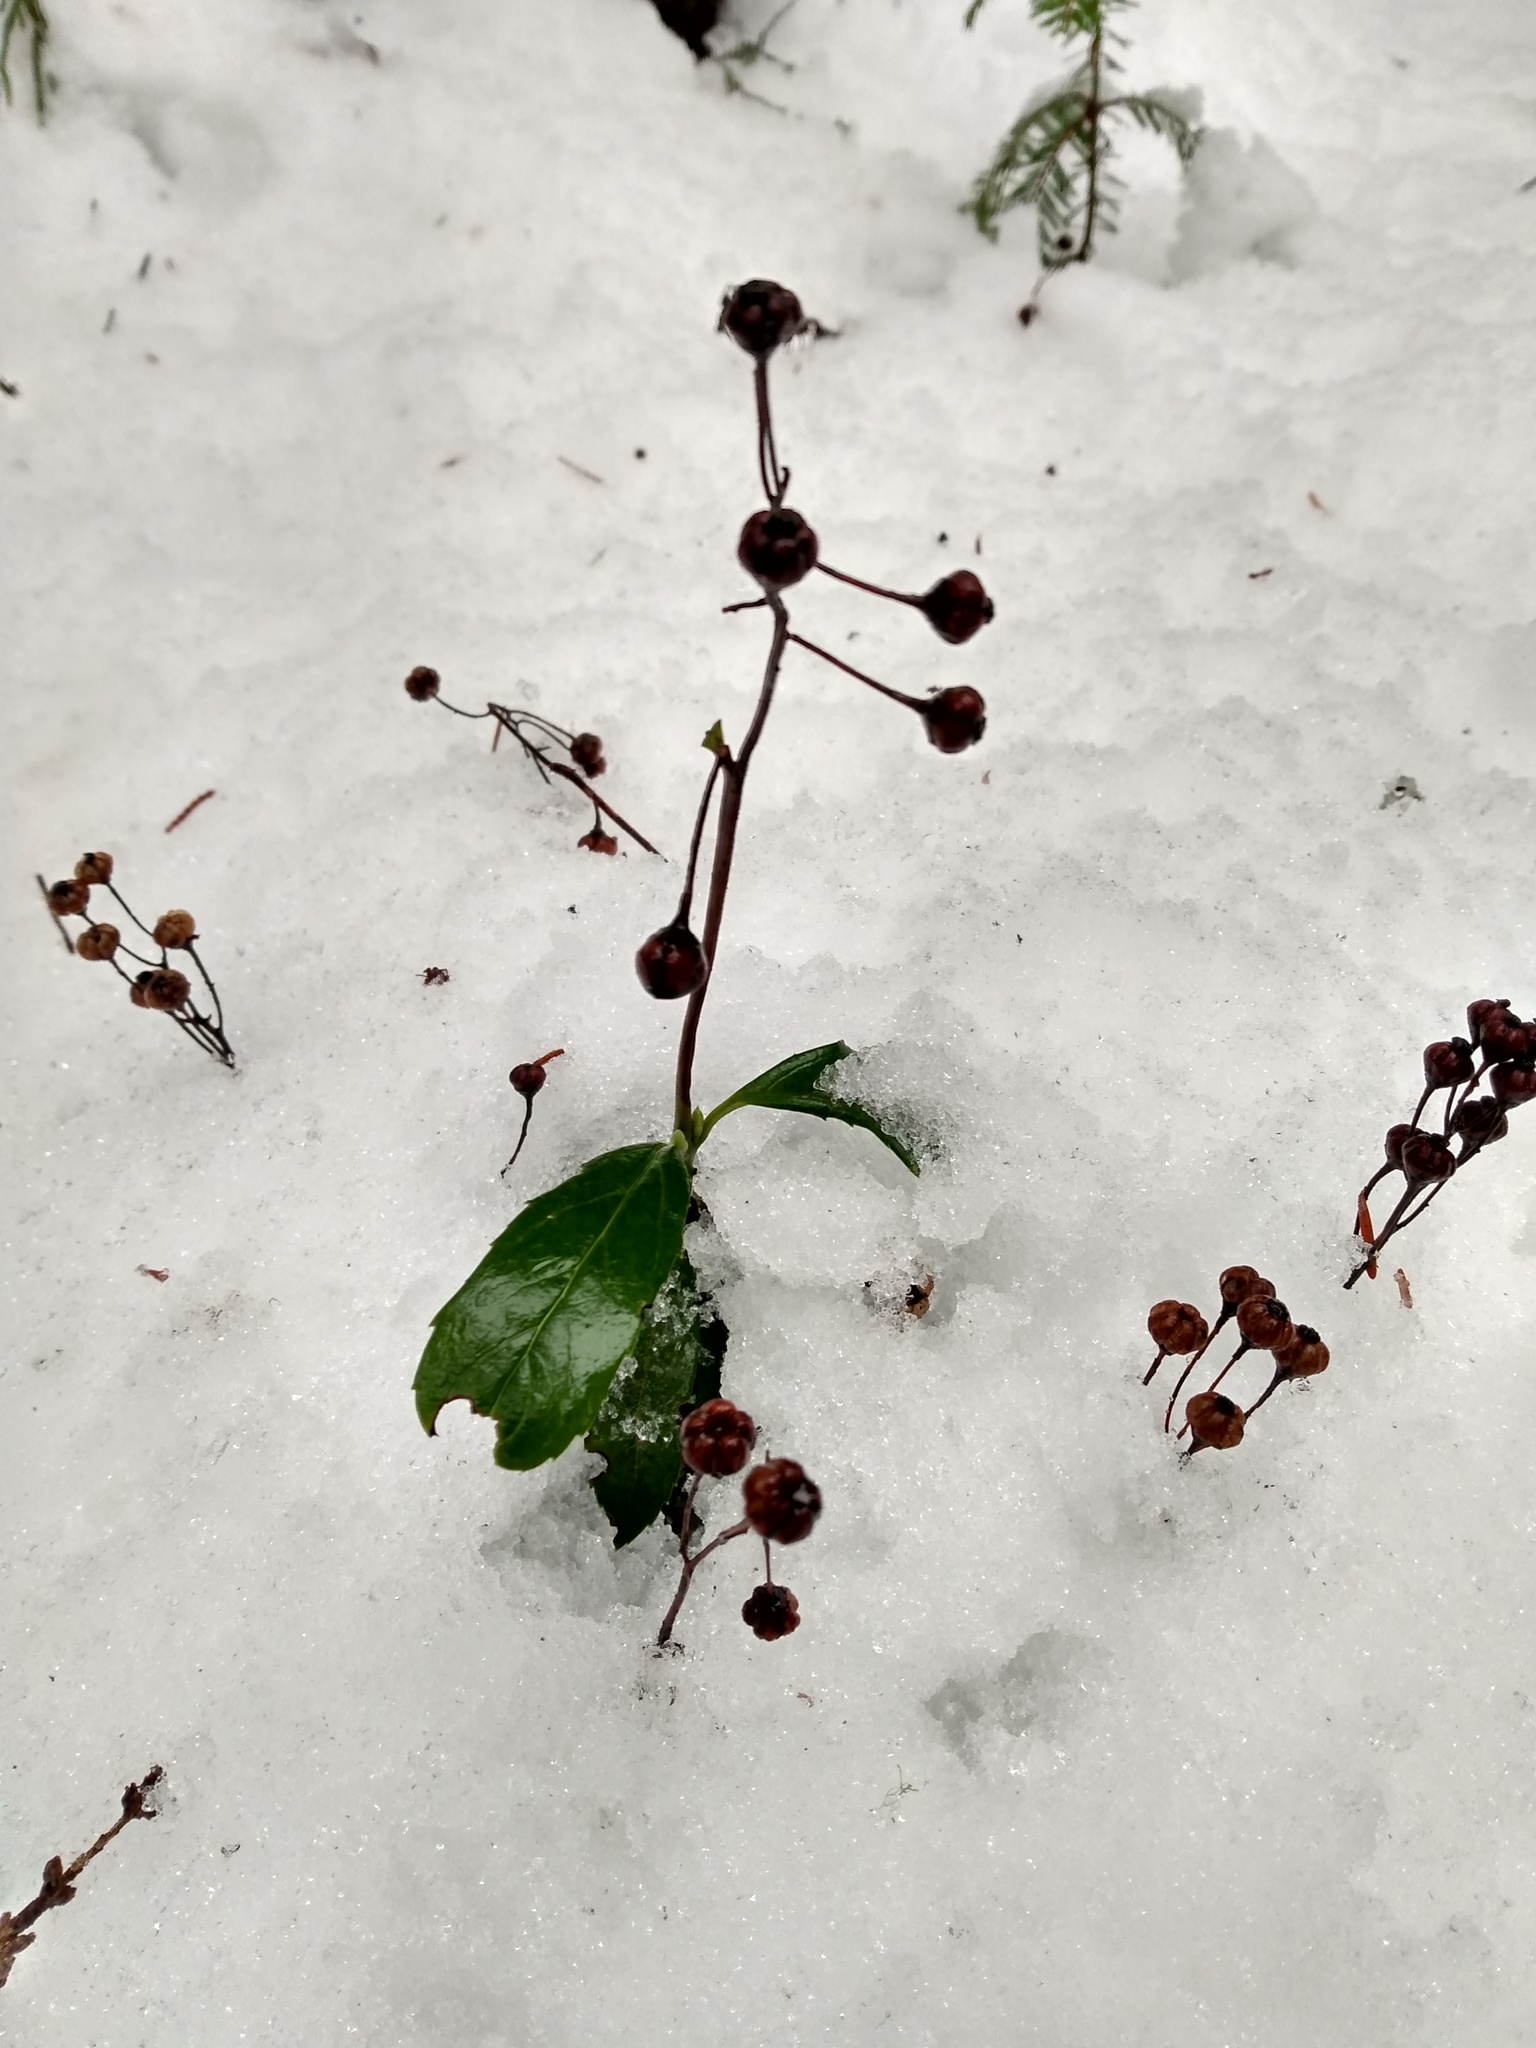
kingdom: Plantae
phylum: Tracheophyta
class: Magnoliopsida
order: Ericales
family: Ericaceae
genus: Chimaphila
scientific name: Chimaphila umbellata
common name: Pipsissewa
